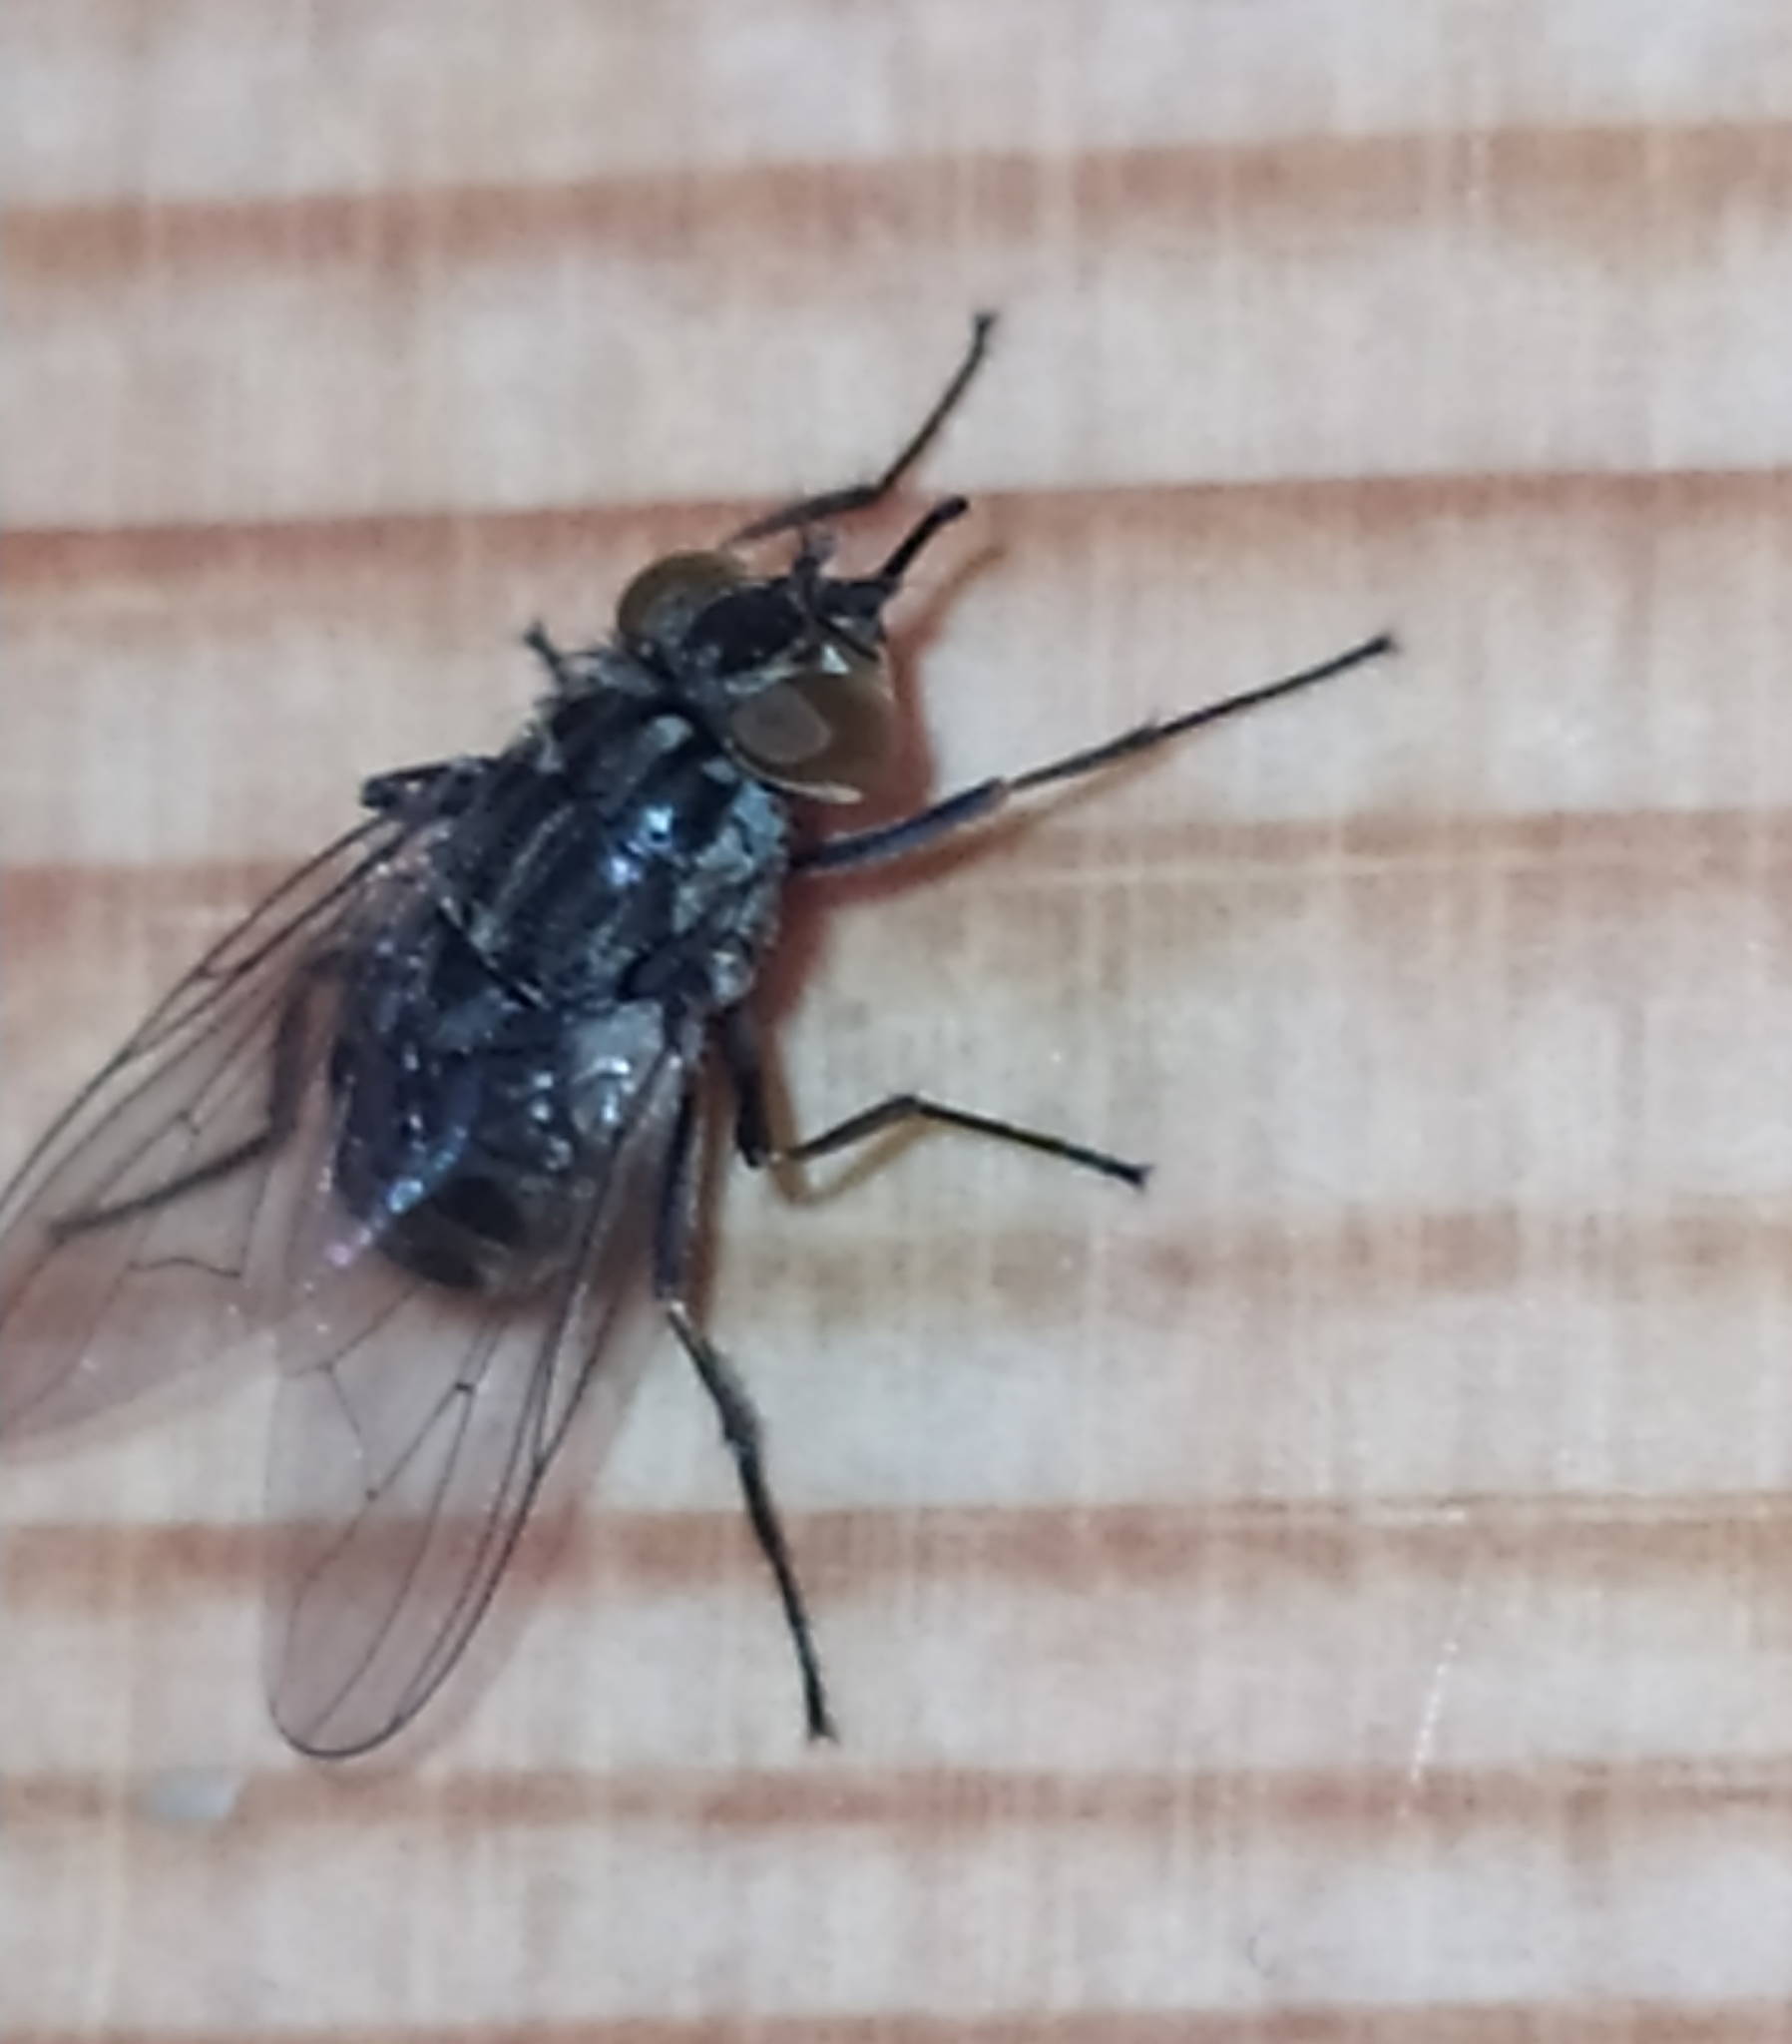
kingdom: Animalia
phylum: Arthropoda
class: Insecta
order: Diptera
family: Muscidae
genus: Stomoxys
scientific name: Stomoxys calcitrans
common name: Stable fly
